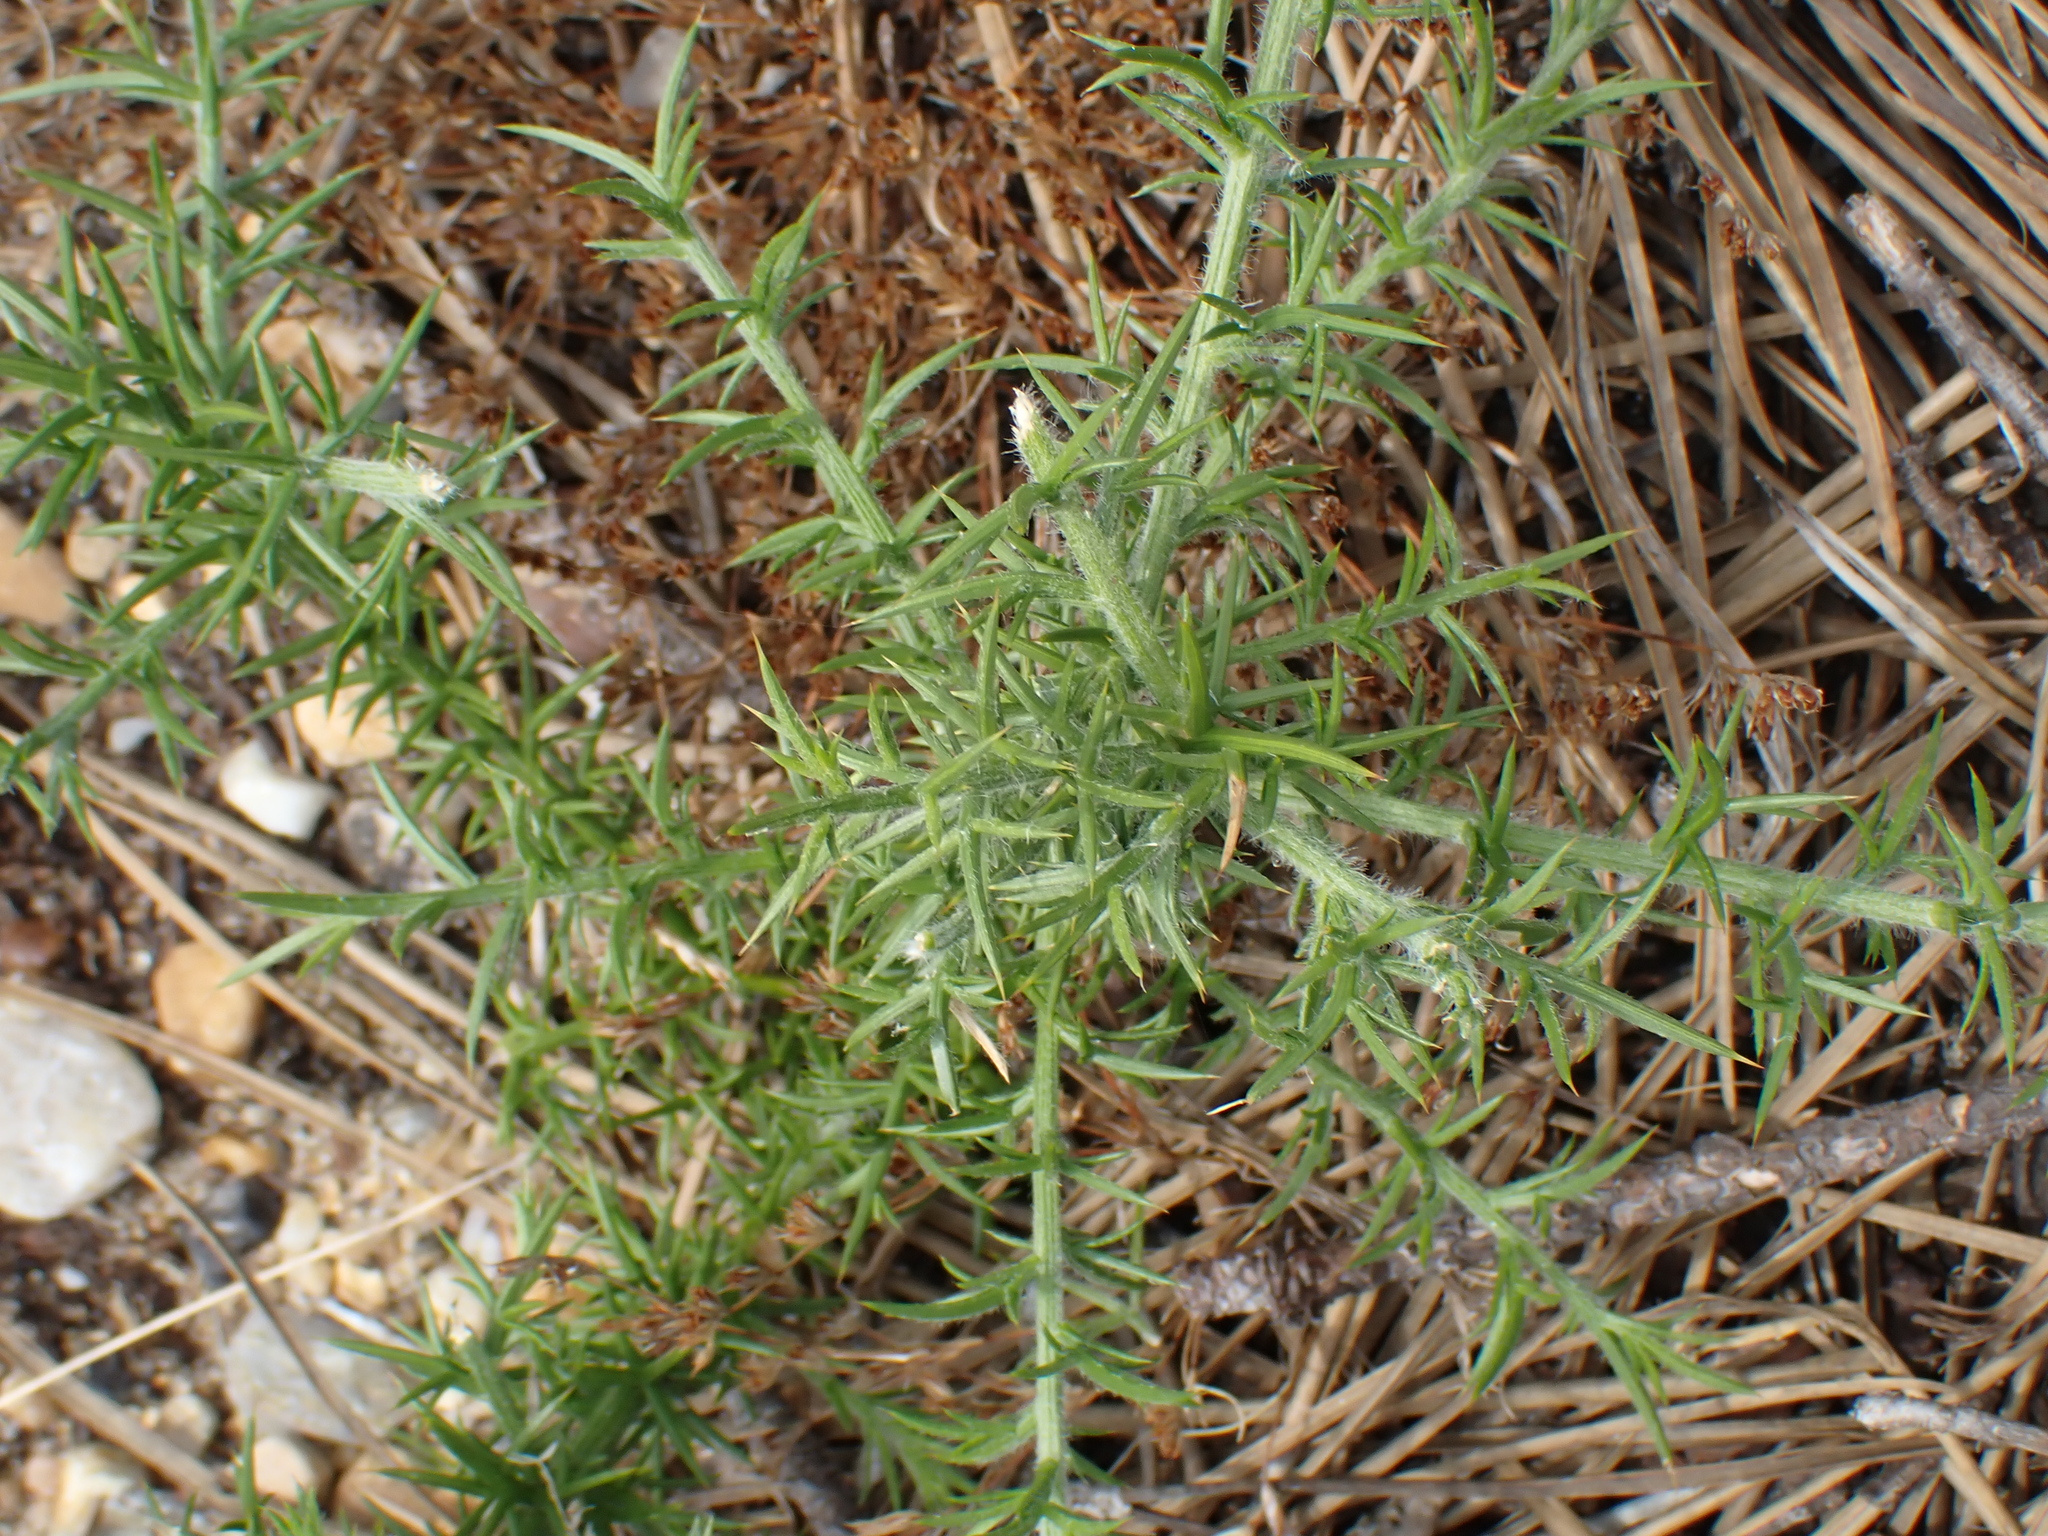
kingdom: Plantae
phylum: Tracheophyta
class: Magnoliopsida
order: Fabales
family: Fabaceae
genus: Ulex
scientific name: Ulex europaeus
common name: Common gorse
